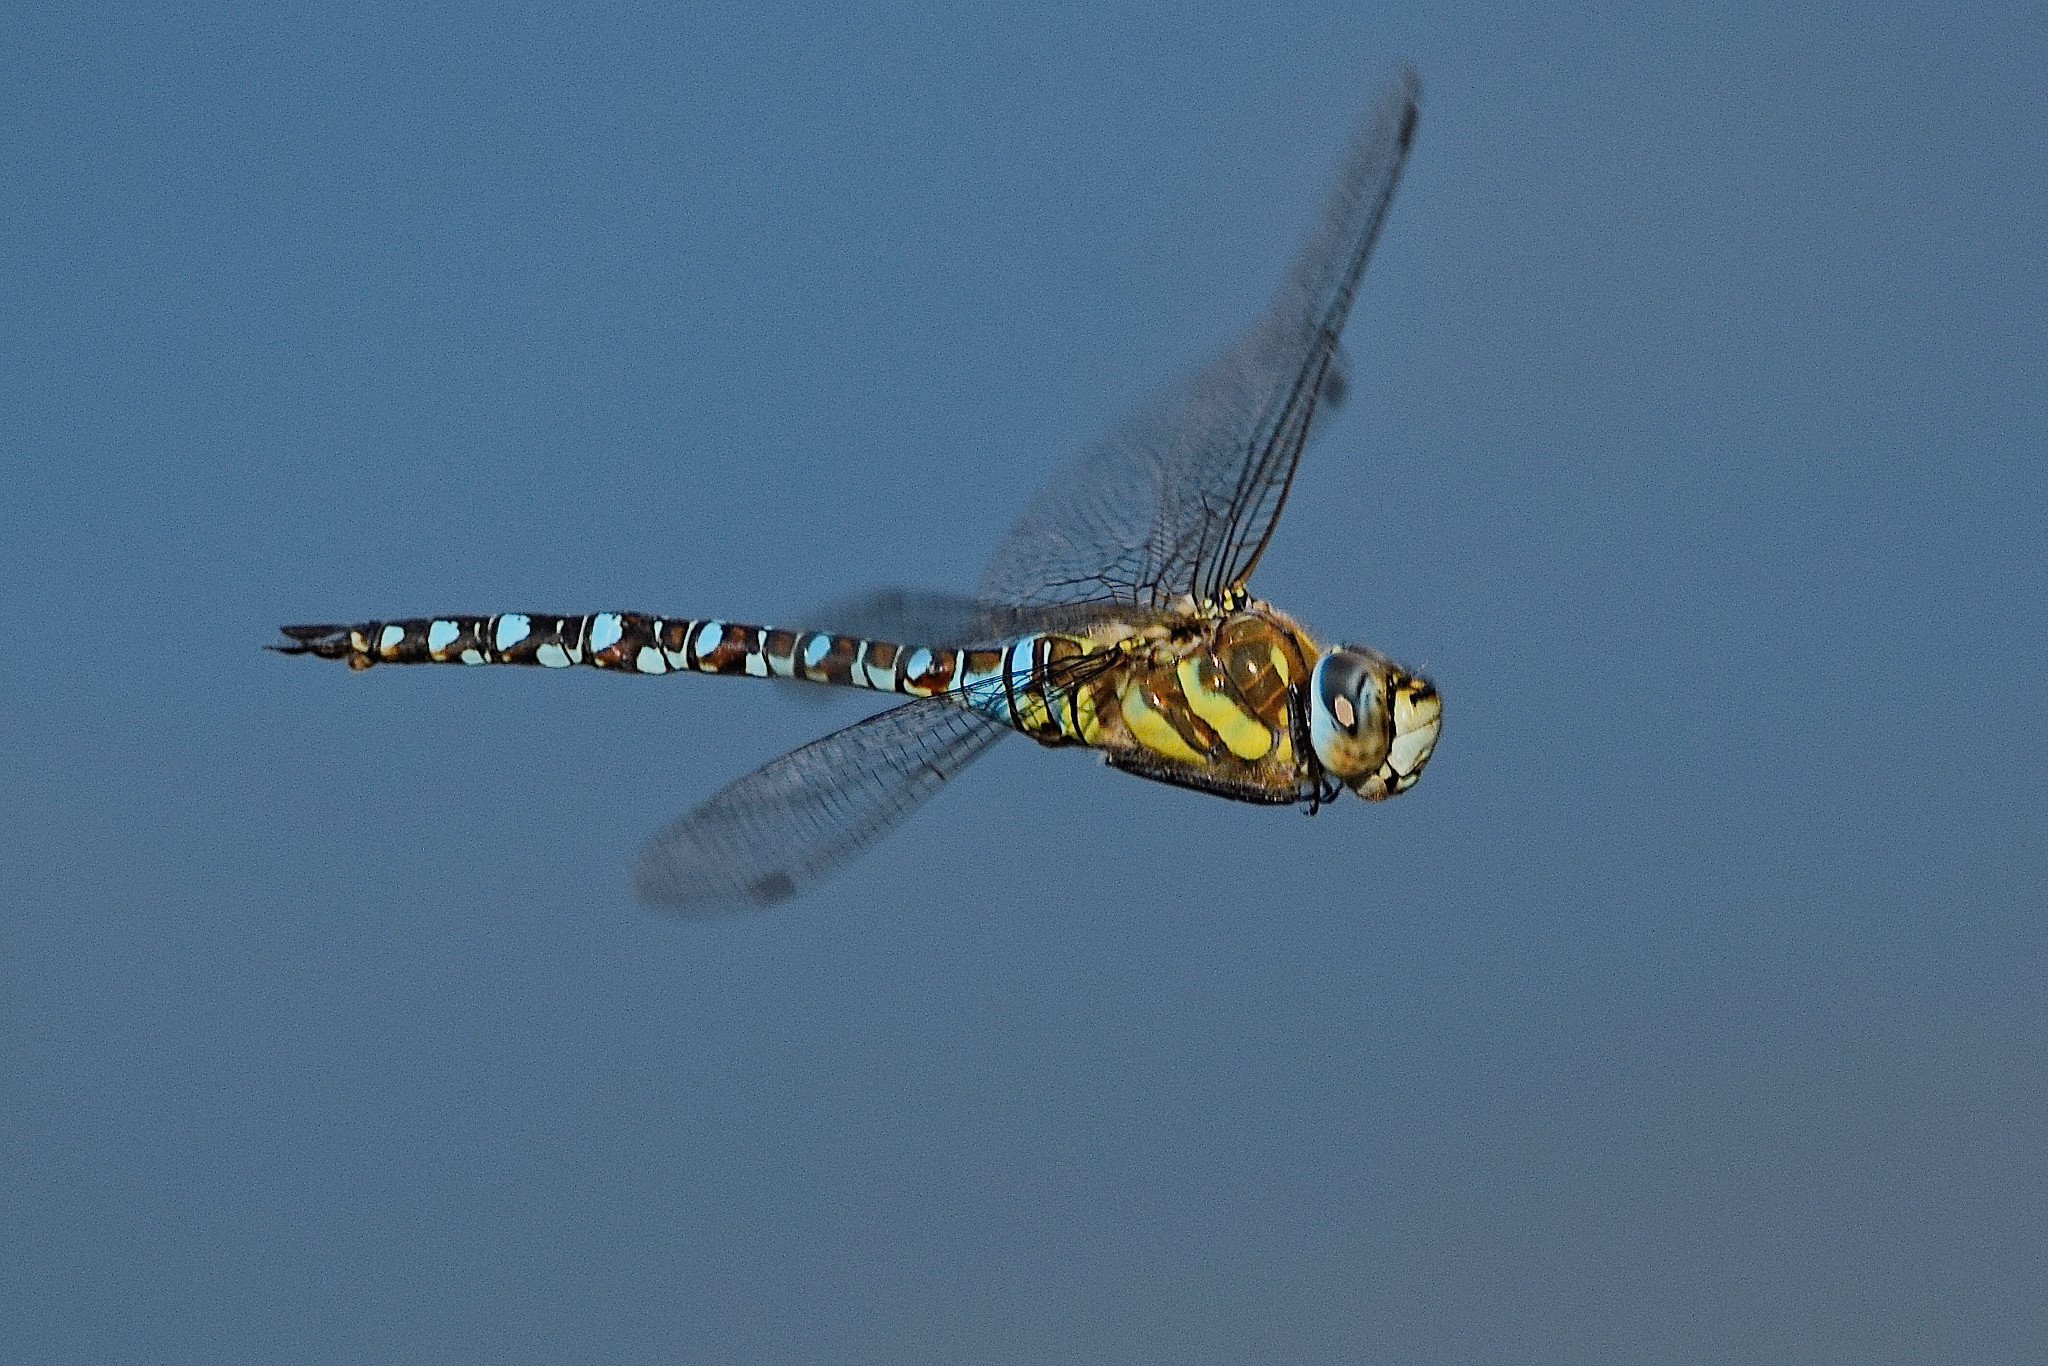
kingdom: Animalia
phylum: Arthropoda
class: Insecta
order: Odonata
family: Aeshnidae
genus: Aeshna
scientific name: Aeshna mixta
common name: Migrant hawker
